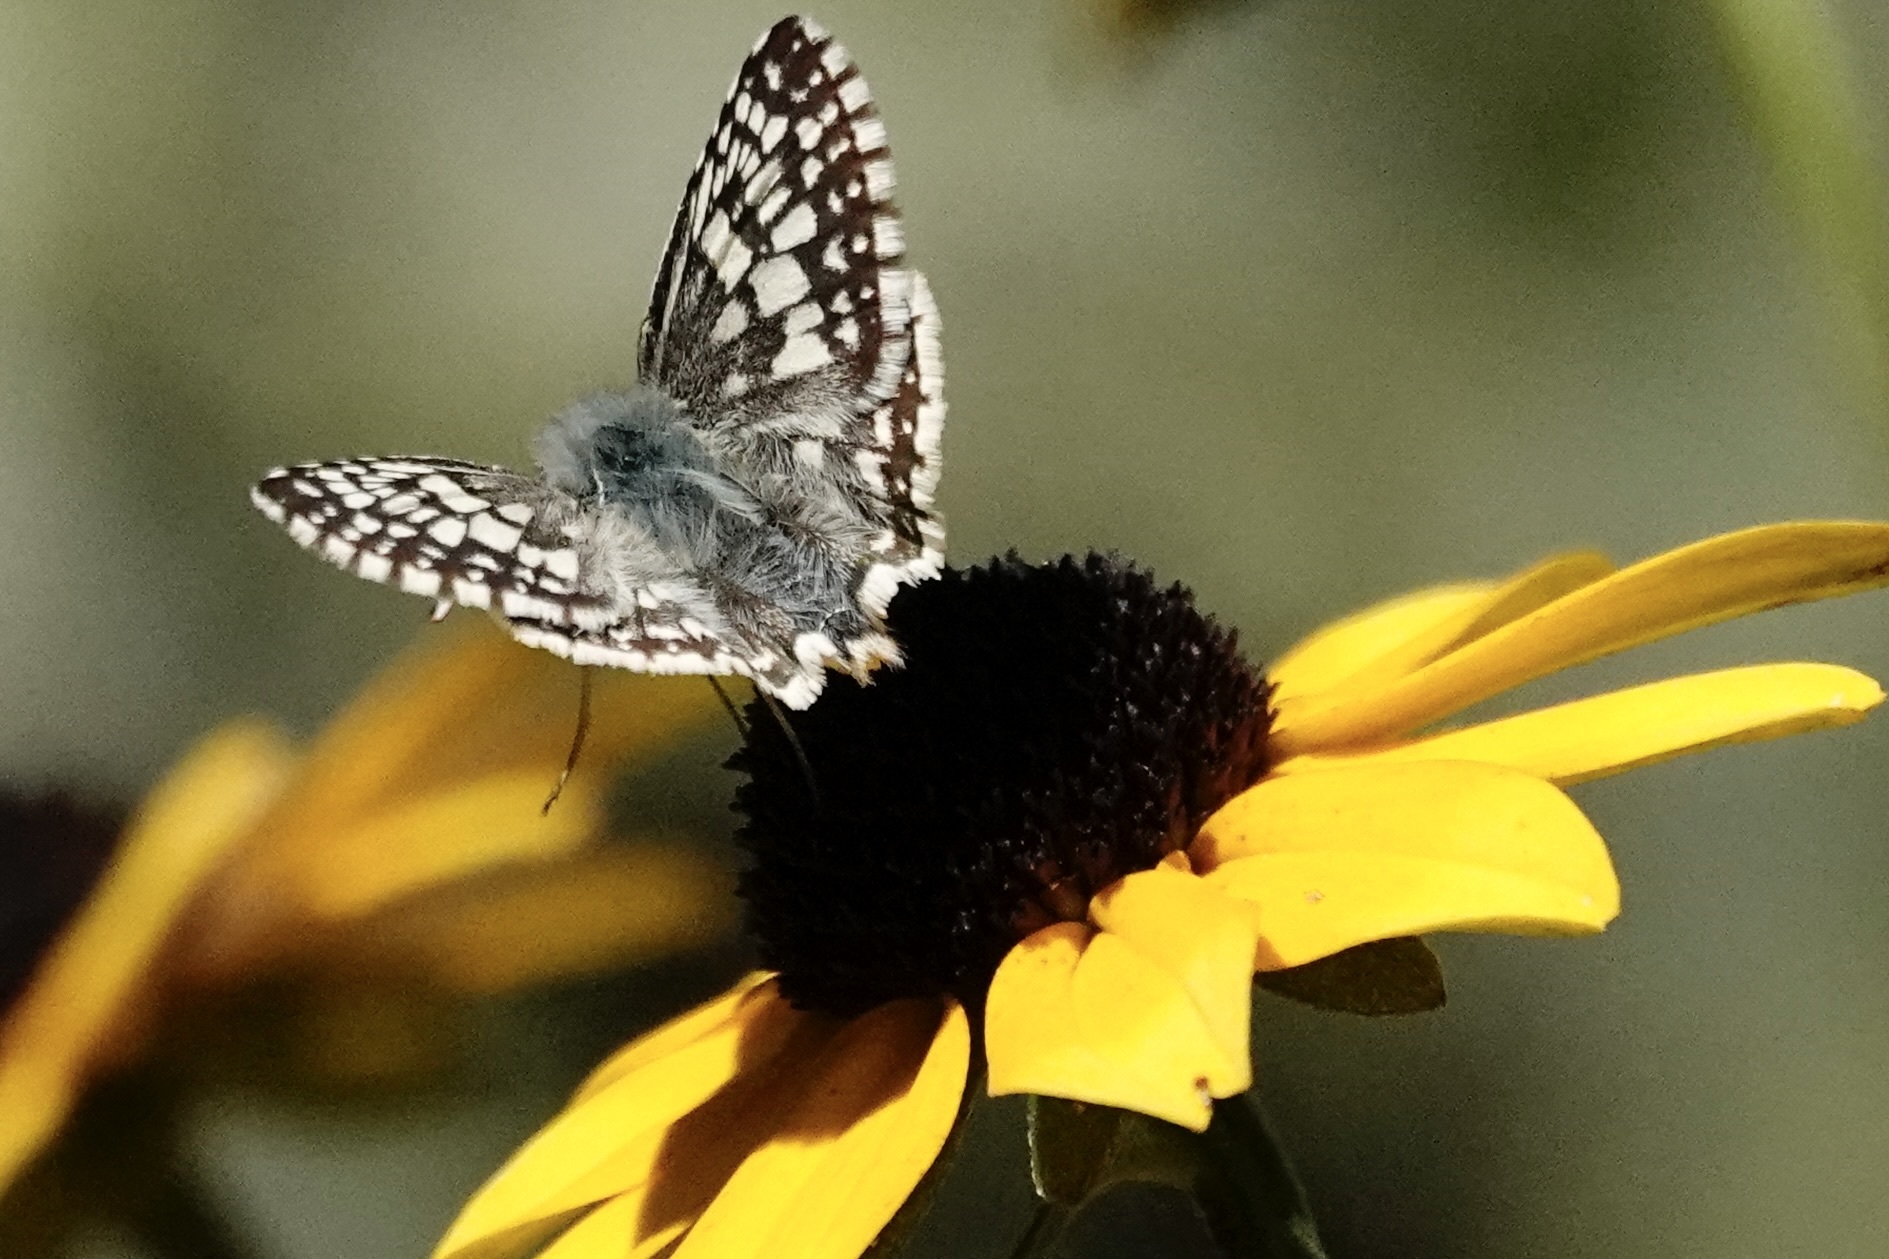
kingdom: Animalia
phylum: Arthropoda
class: Insecta
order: Lepidoptera
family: Hesperiidae
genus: Burnsius
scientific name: Burnsius communis
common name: Common checkered-skipper
